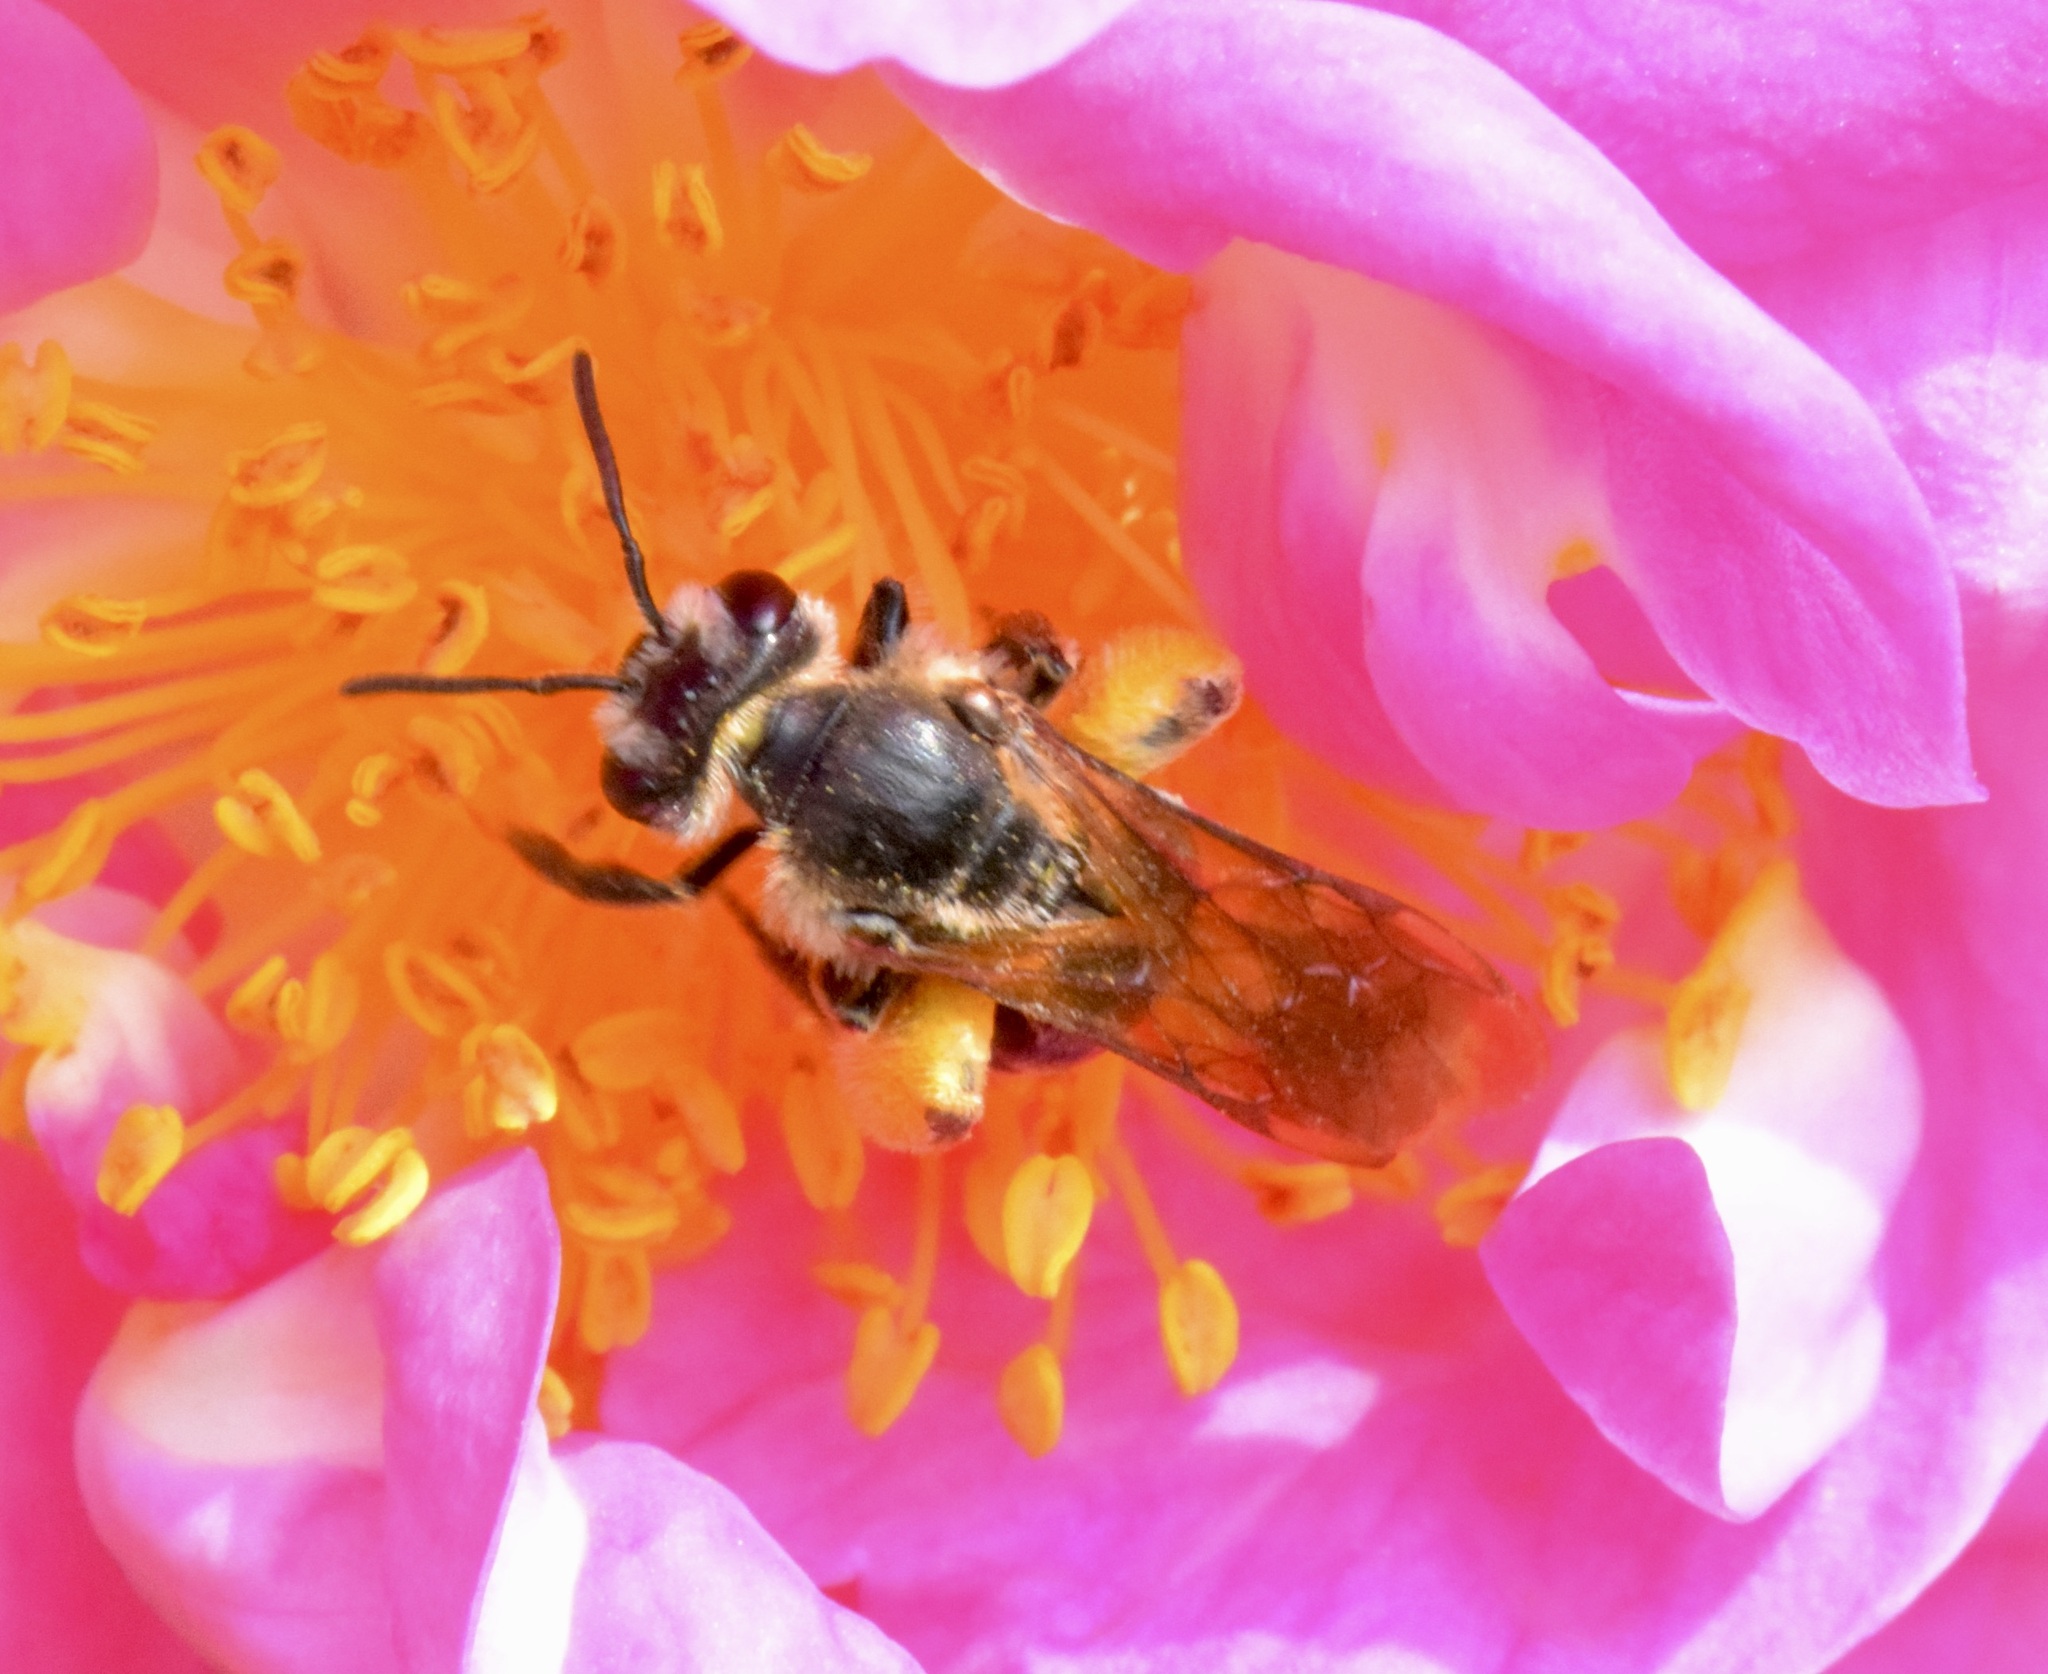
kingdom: Animalia
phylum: Arthropoda
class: Insecta
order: Hymenoptera
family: Andrenidae
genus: Andrena
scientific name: Andrena crataegi
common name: Hawthorn mining bee
